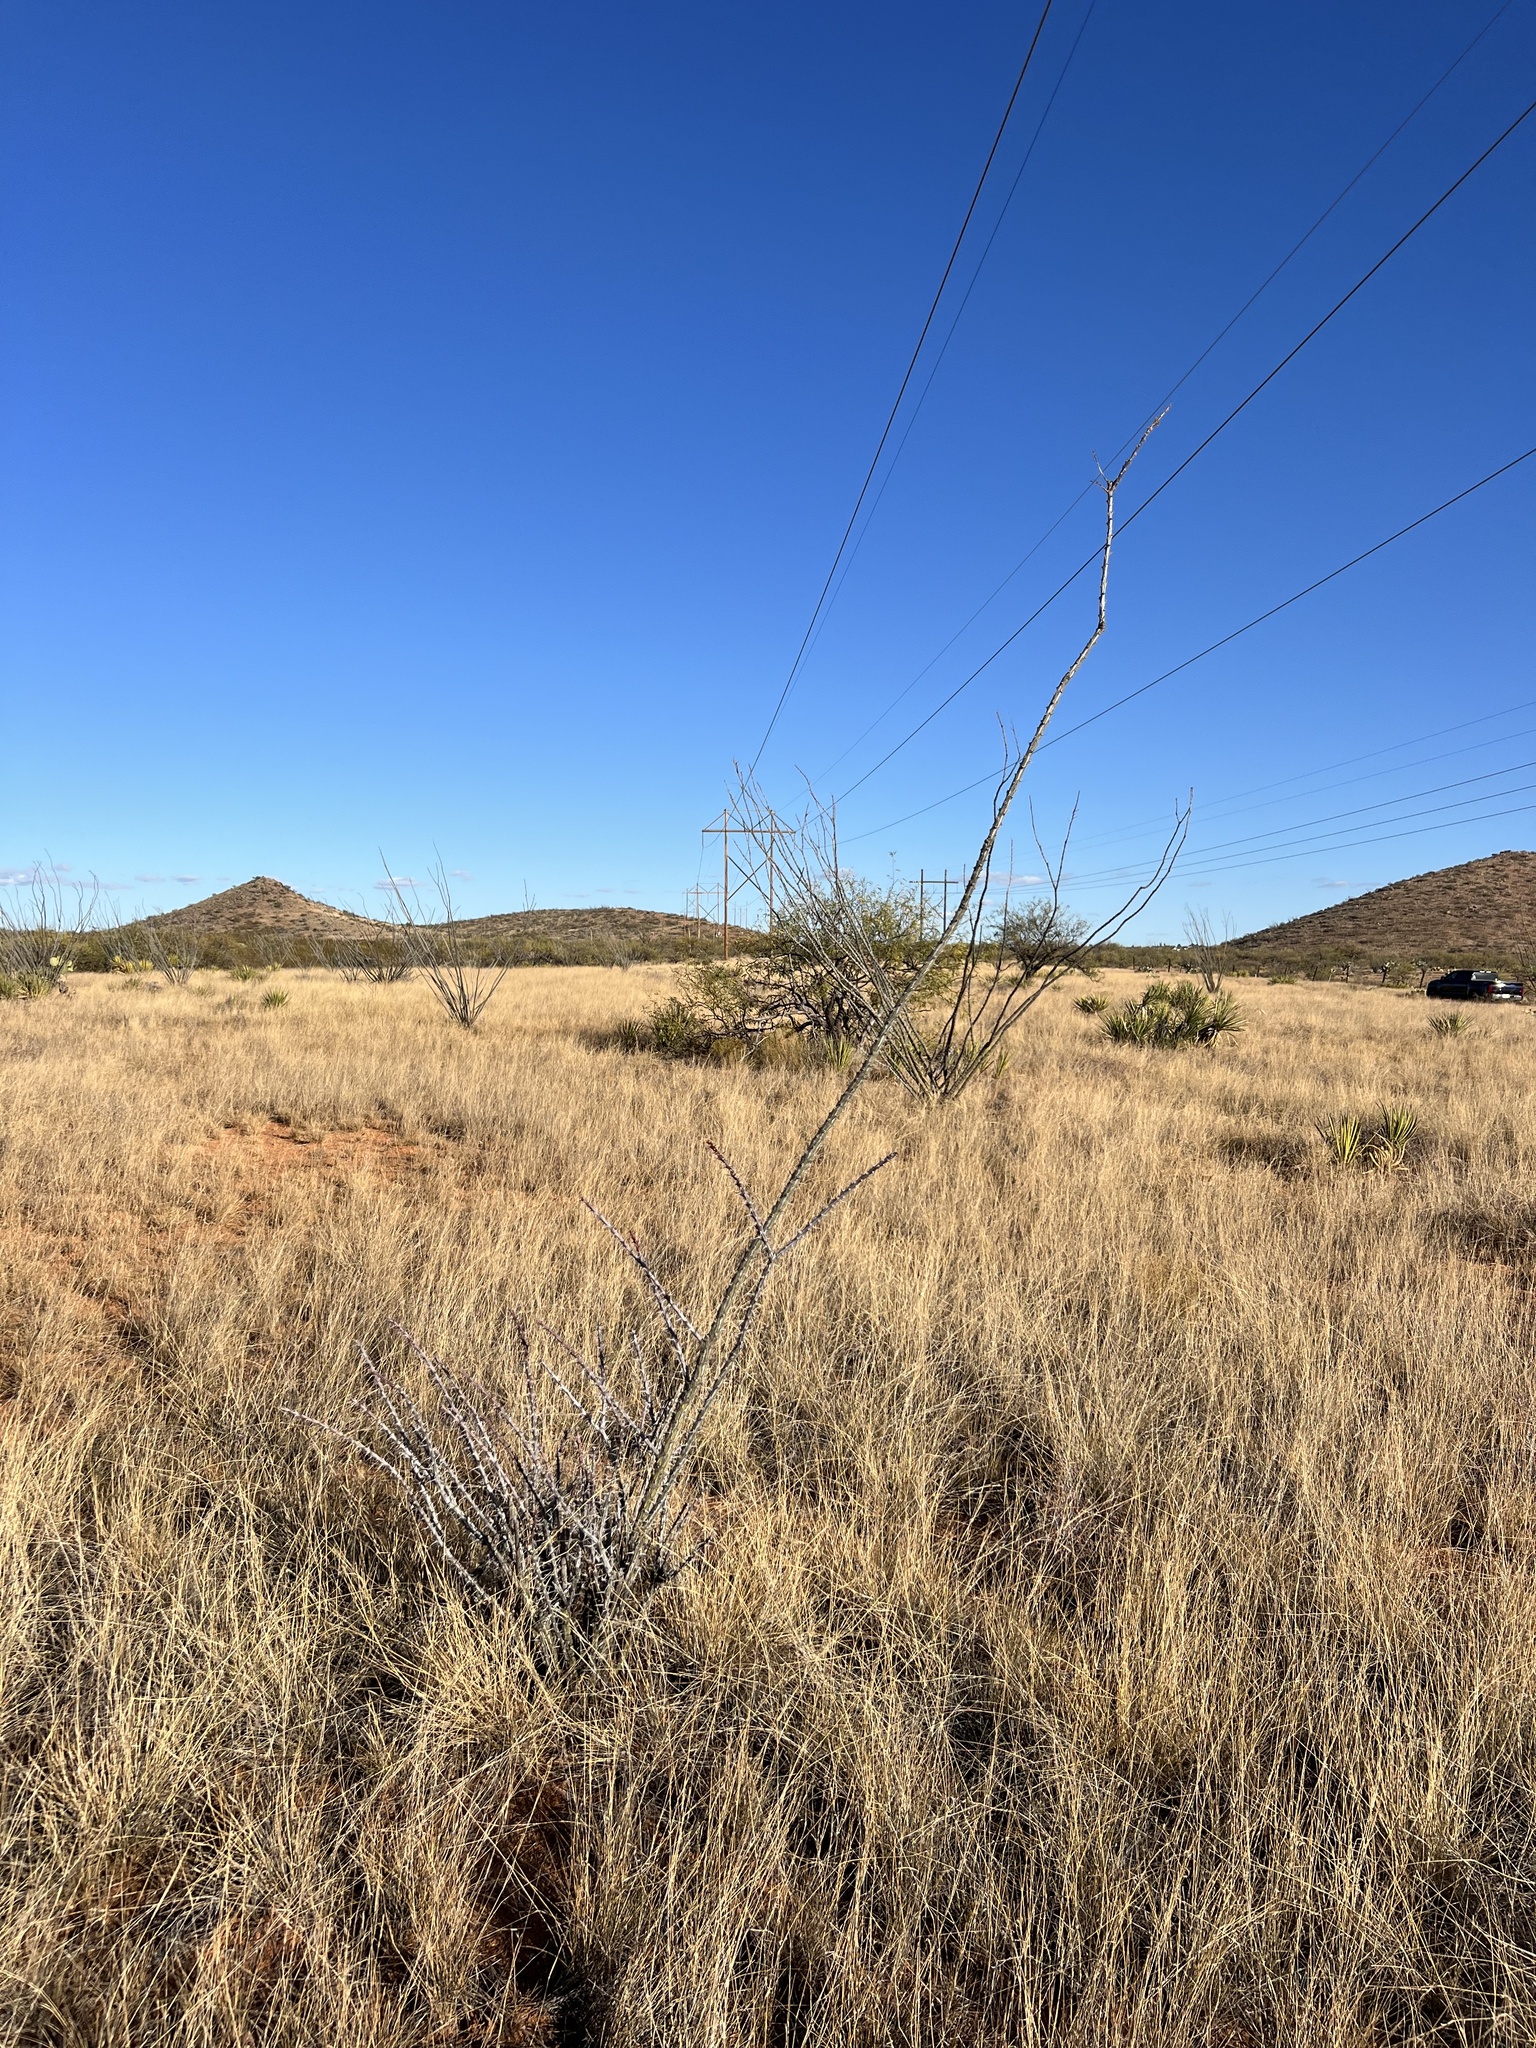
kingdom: Plantae
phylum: Tracheophyta
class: Magnoliopsida
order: Ericales
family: Fouquieriaceae
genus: Fouquieria
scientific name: Fouquieria splendens
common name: Vine-cactus
